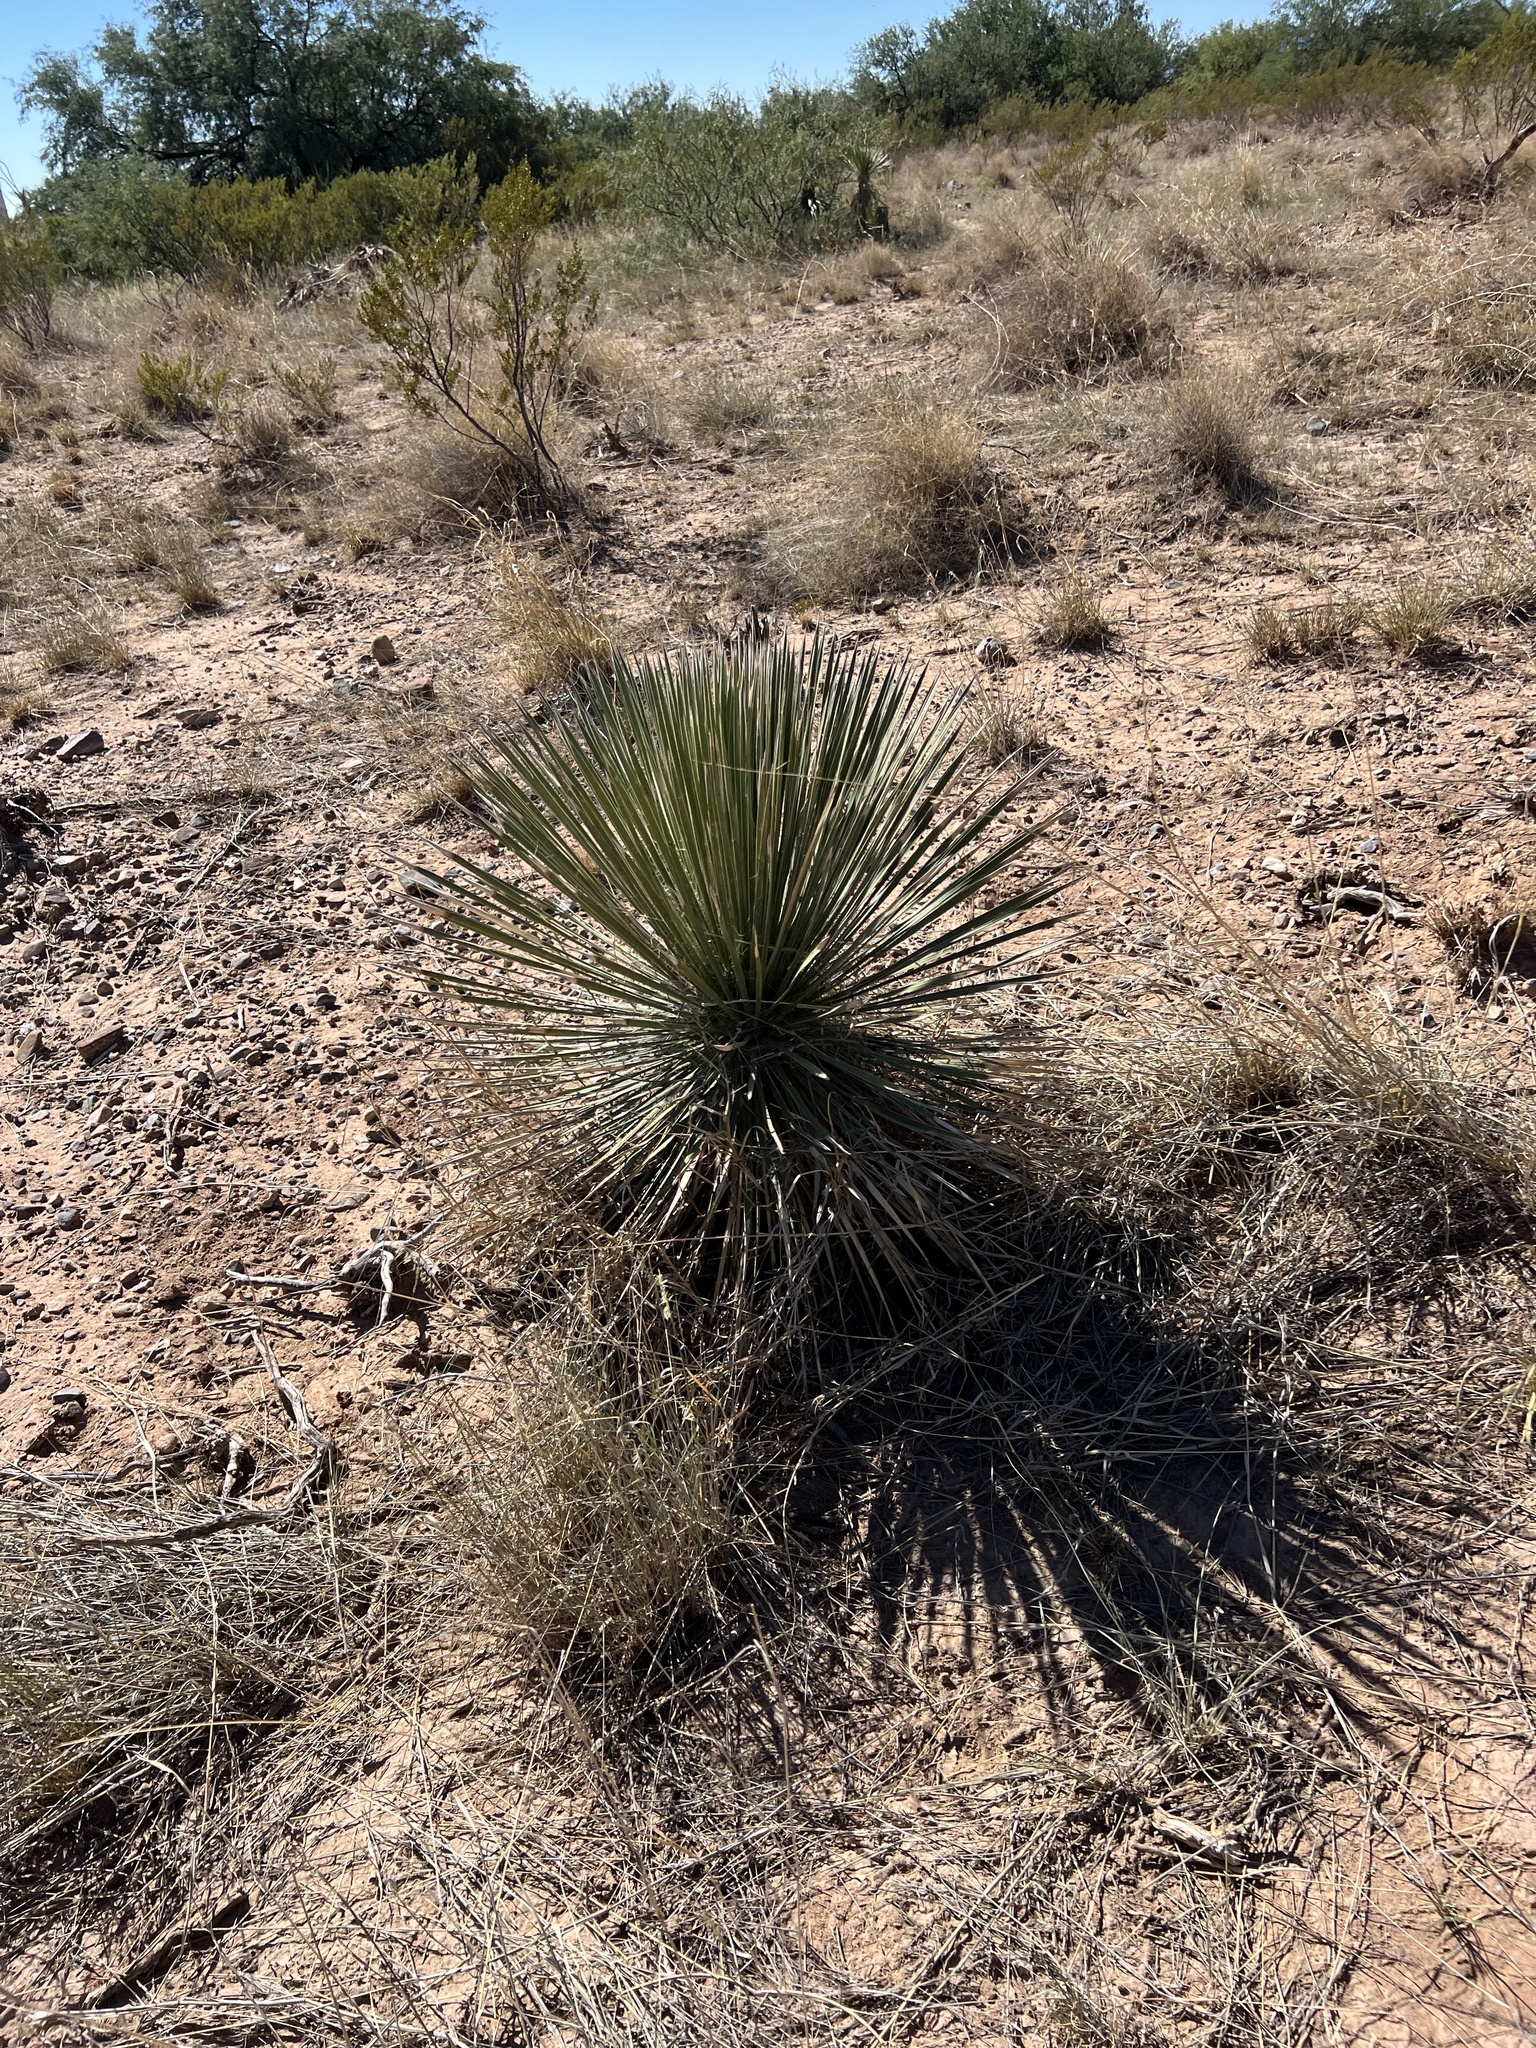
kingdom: Plantae
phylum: Tracheophyta
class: Liliopsida
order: Asparagales
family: Asparagaceae
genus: Yucca
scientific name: Yucca elata
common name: Palmella
